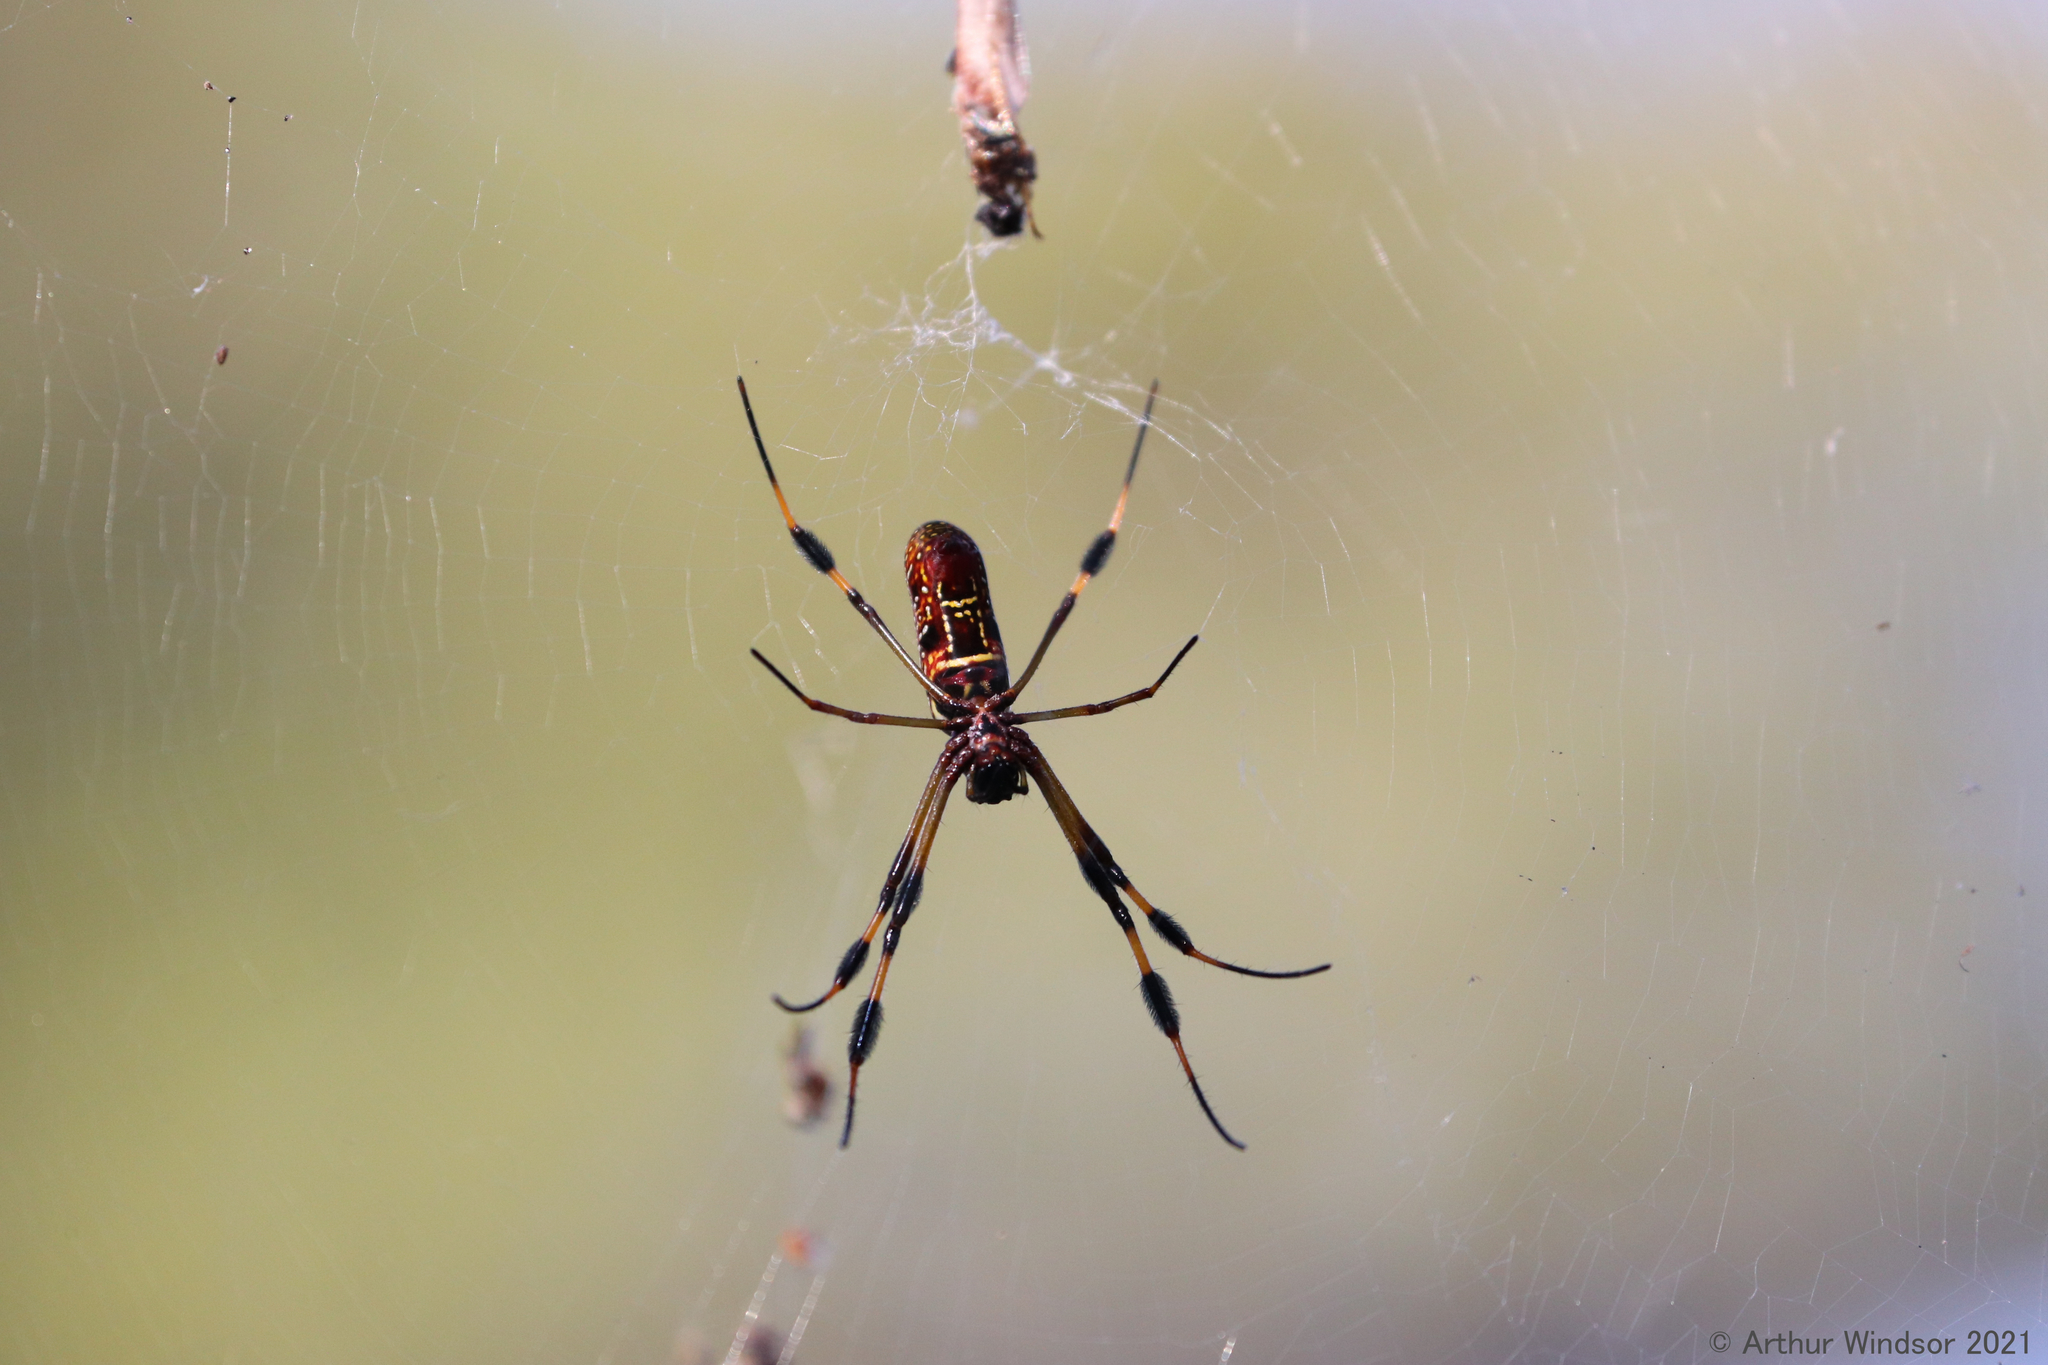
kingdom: Animalia
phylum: Arthropoda
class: Arachnida
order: Araneae
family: Araneidae
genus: Trichonephila
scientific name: Trichonephila clavipes
